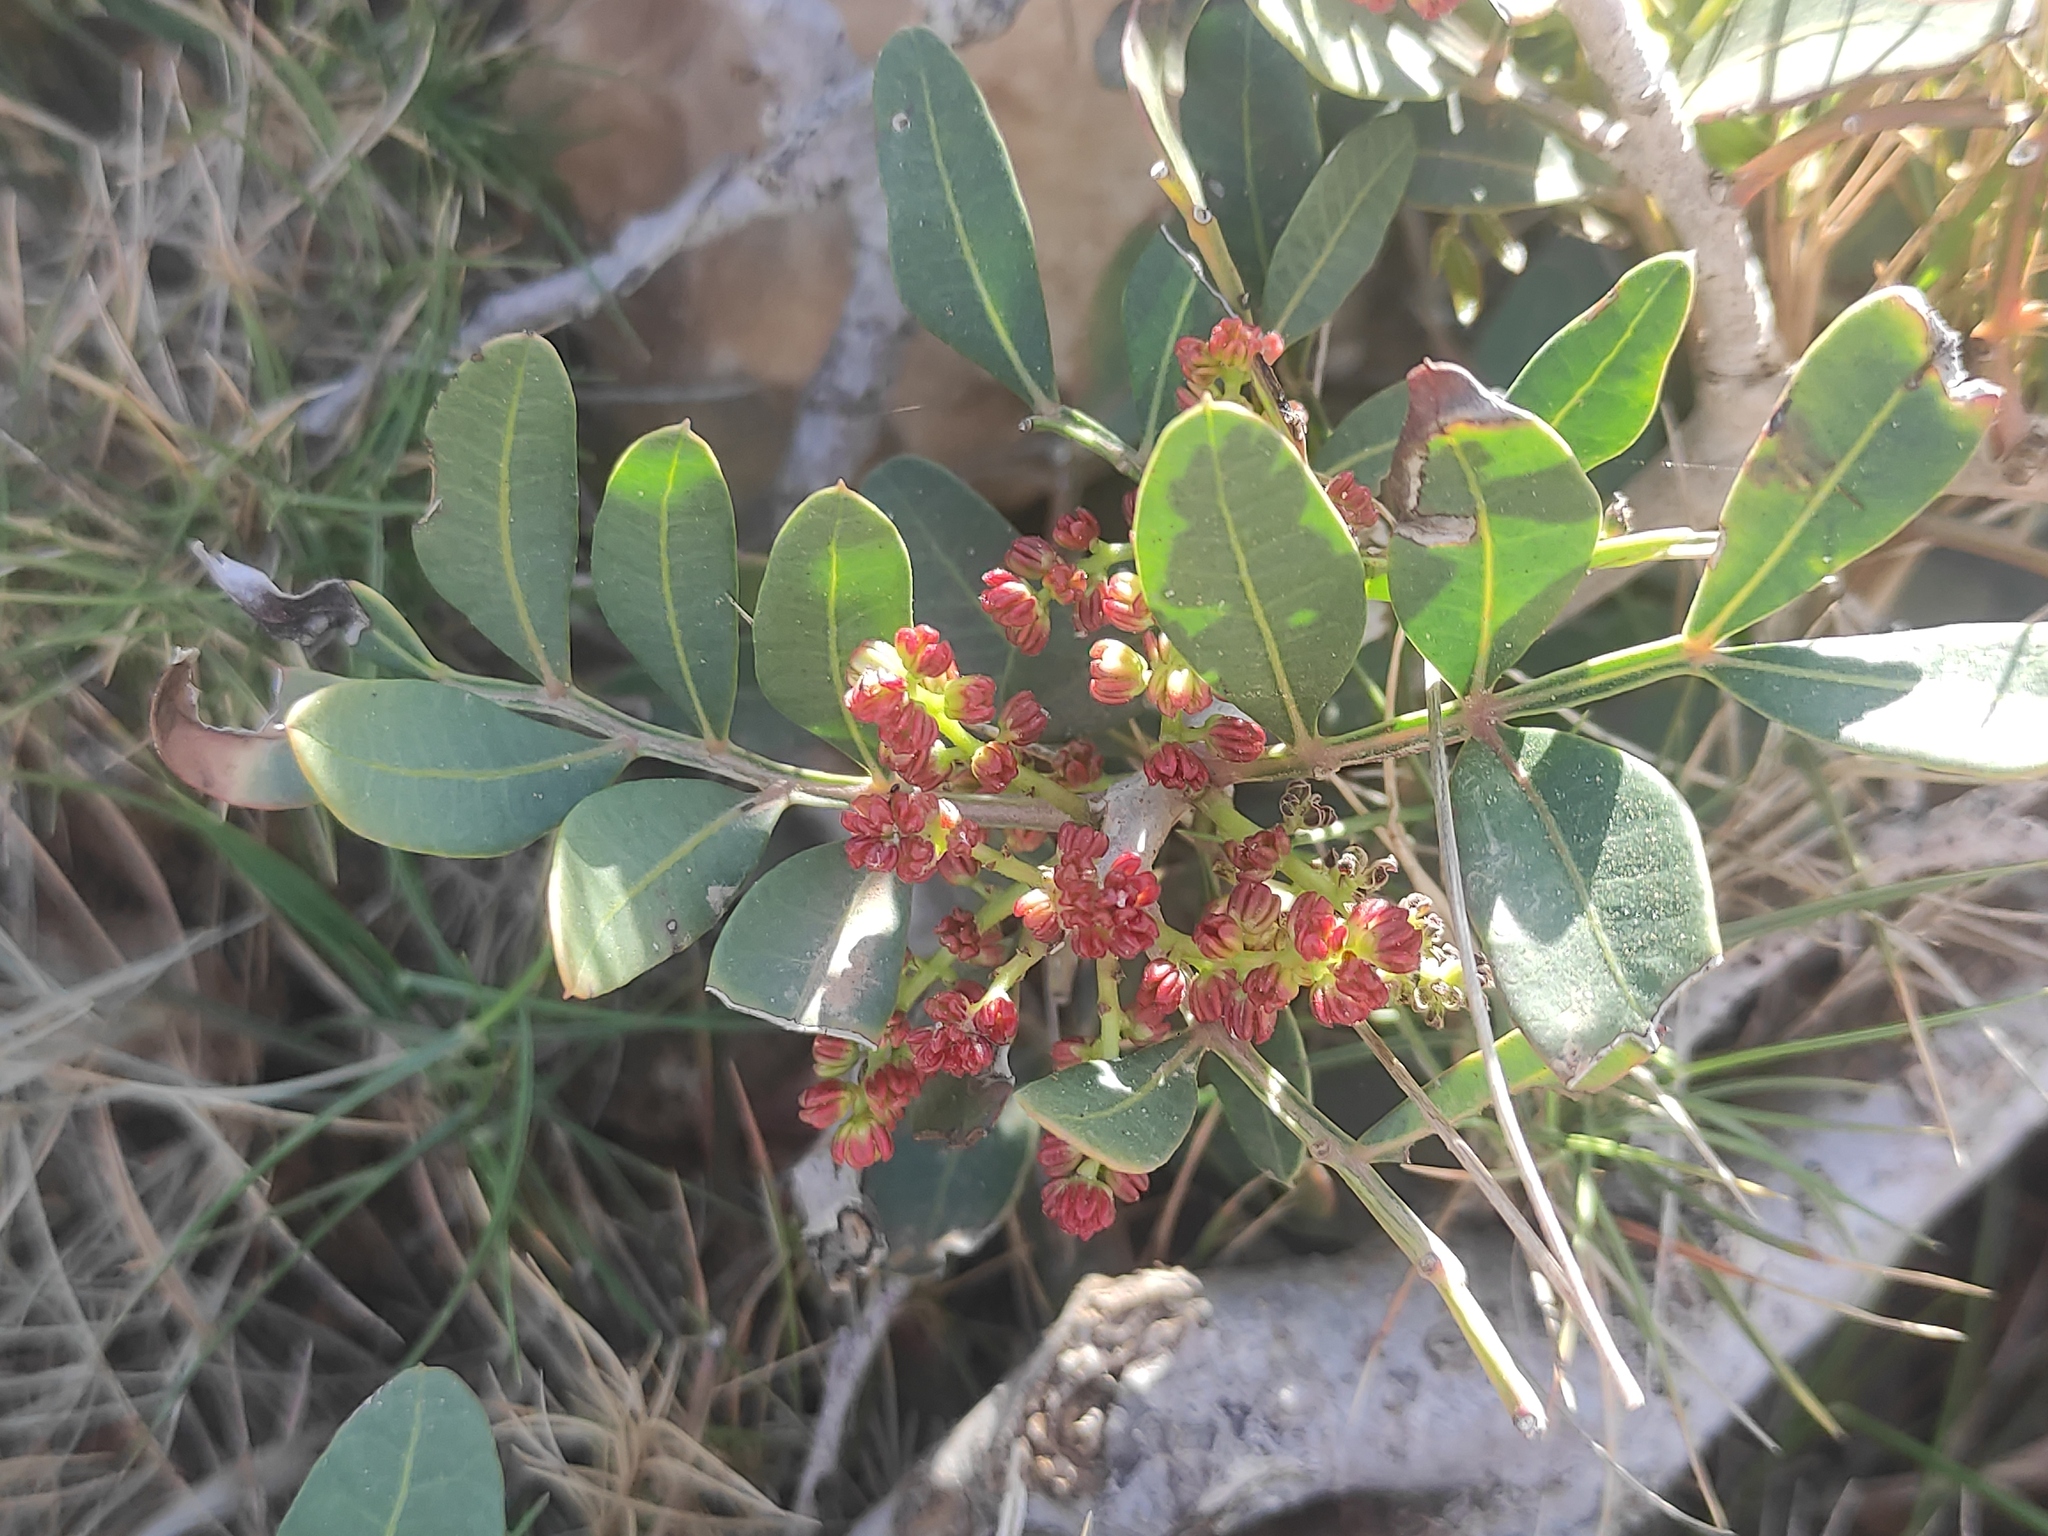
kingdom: Plantae
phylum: Tracheophyta
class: Magnoliopsida
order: Sapindales
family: Anacardiaceae
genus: Pistacia
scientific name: Pistacia lentiscus
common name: Lentisk
